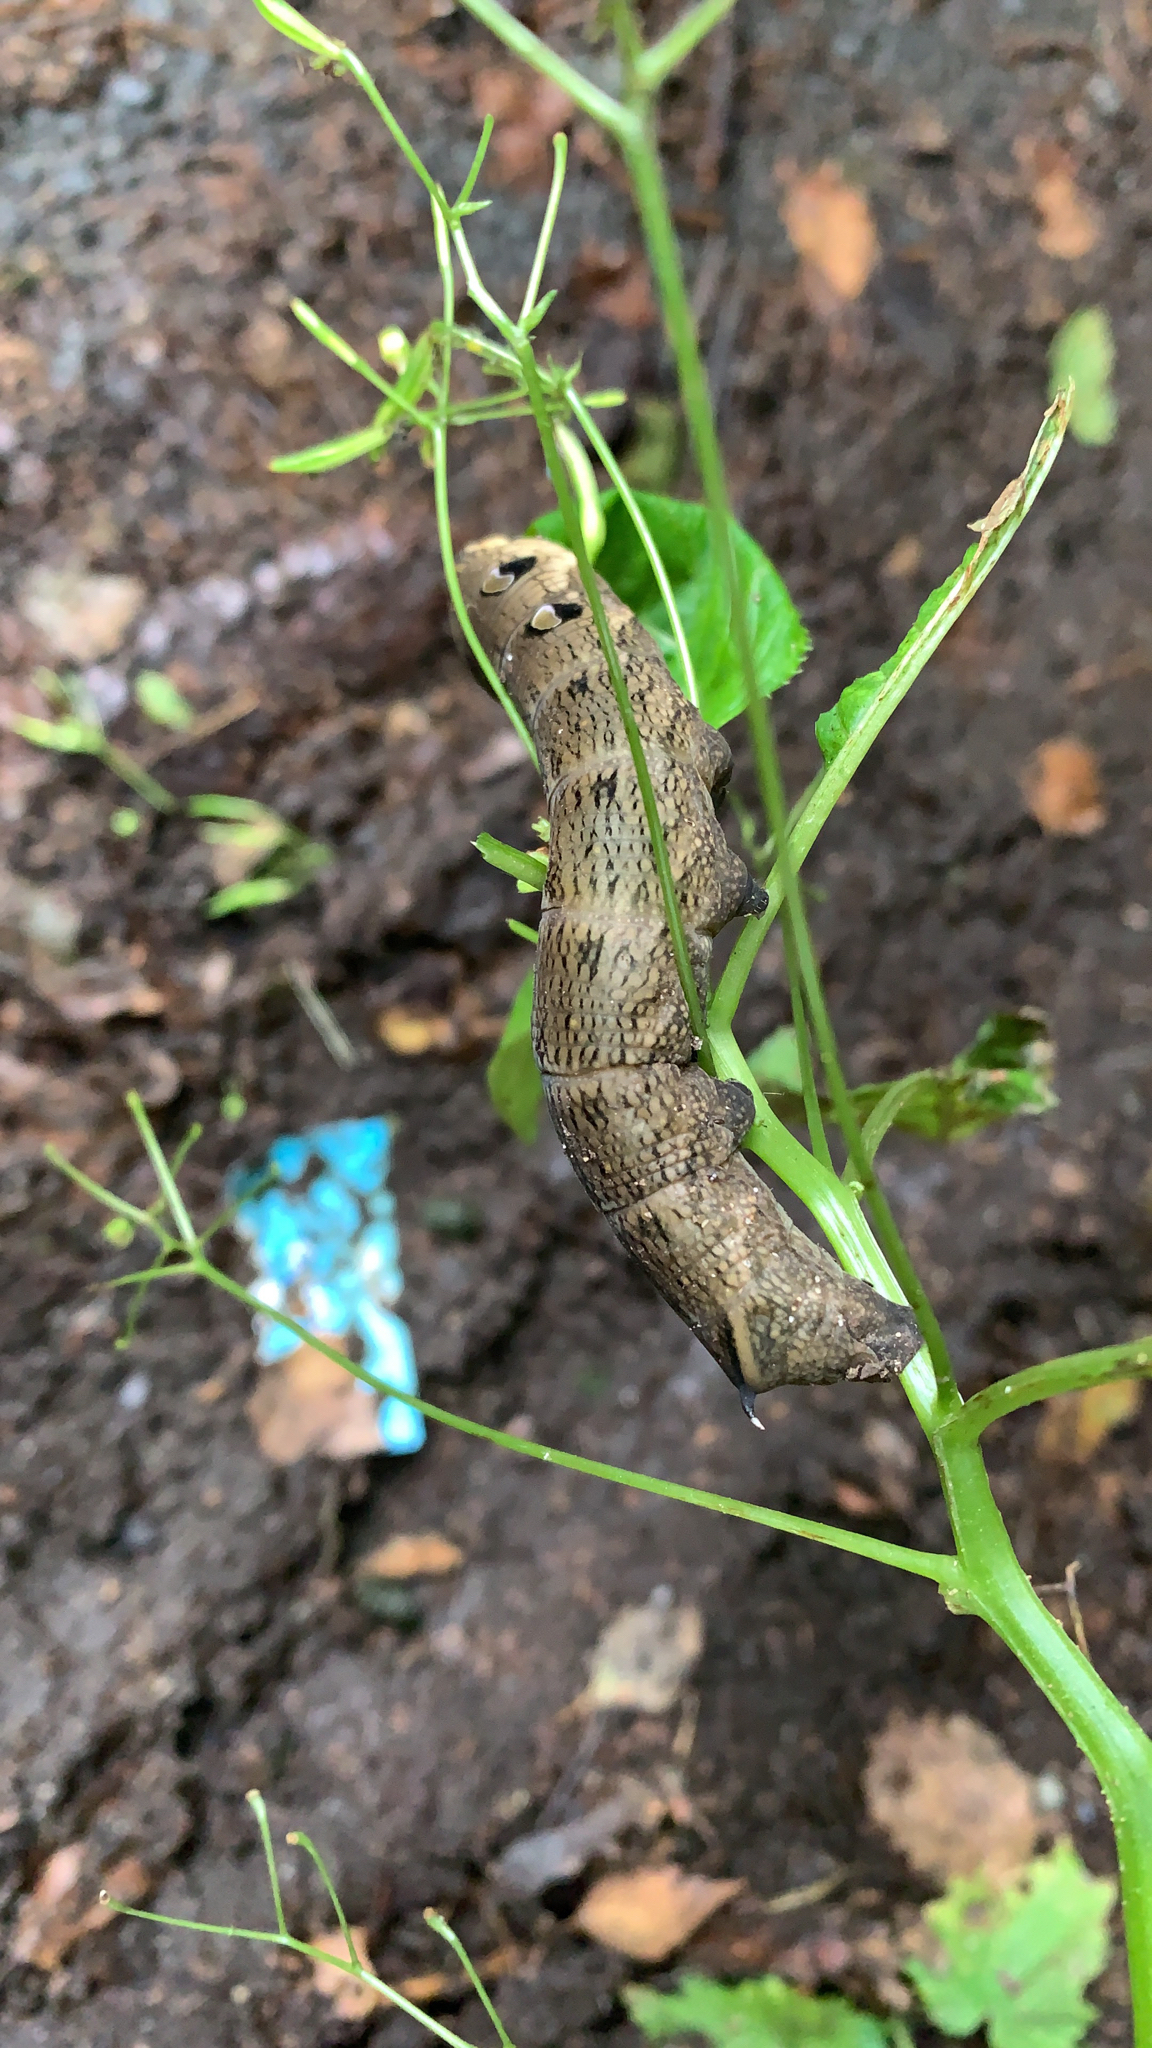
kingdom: Animalia
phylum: Arthropoda
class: Insecta
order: Lepidoptera
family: Sphingidae
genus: Deilephila
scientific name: Deilephila elpenor
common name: Elephant hawk-moth
